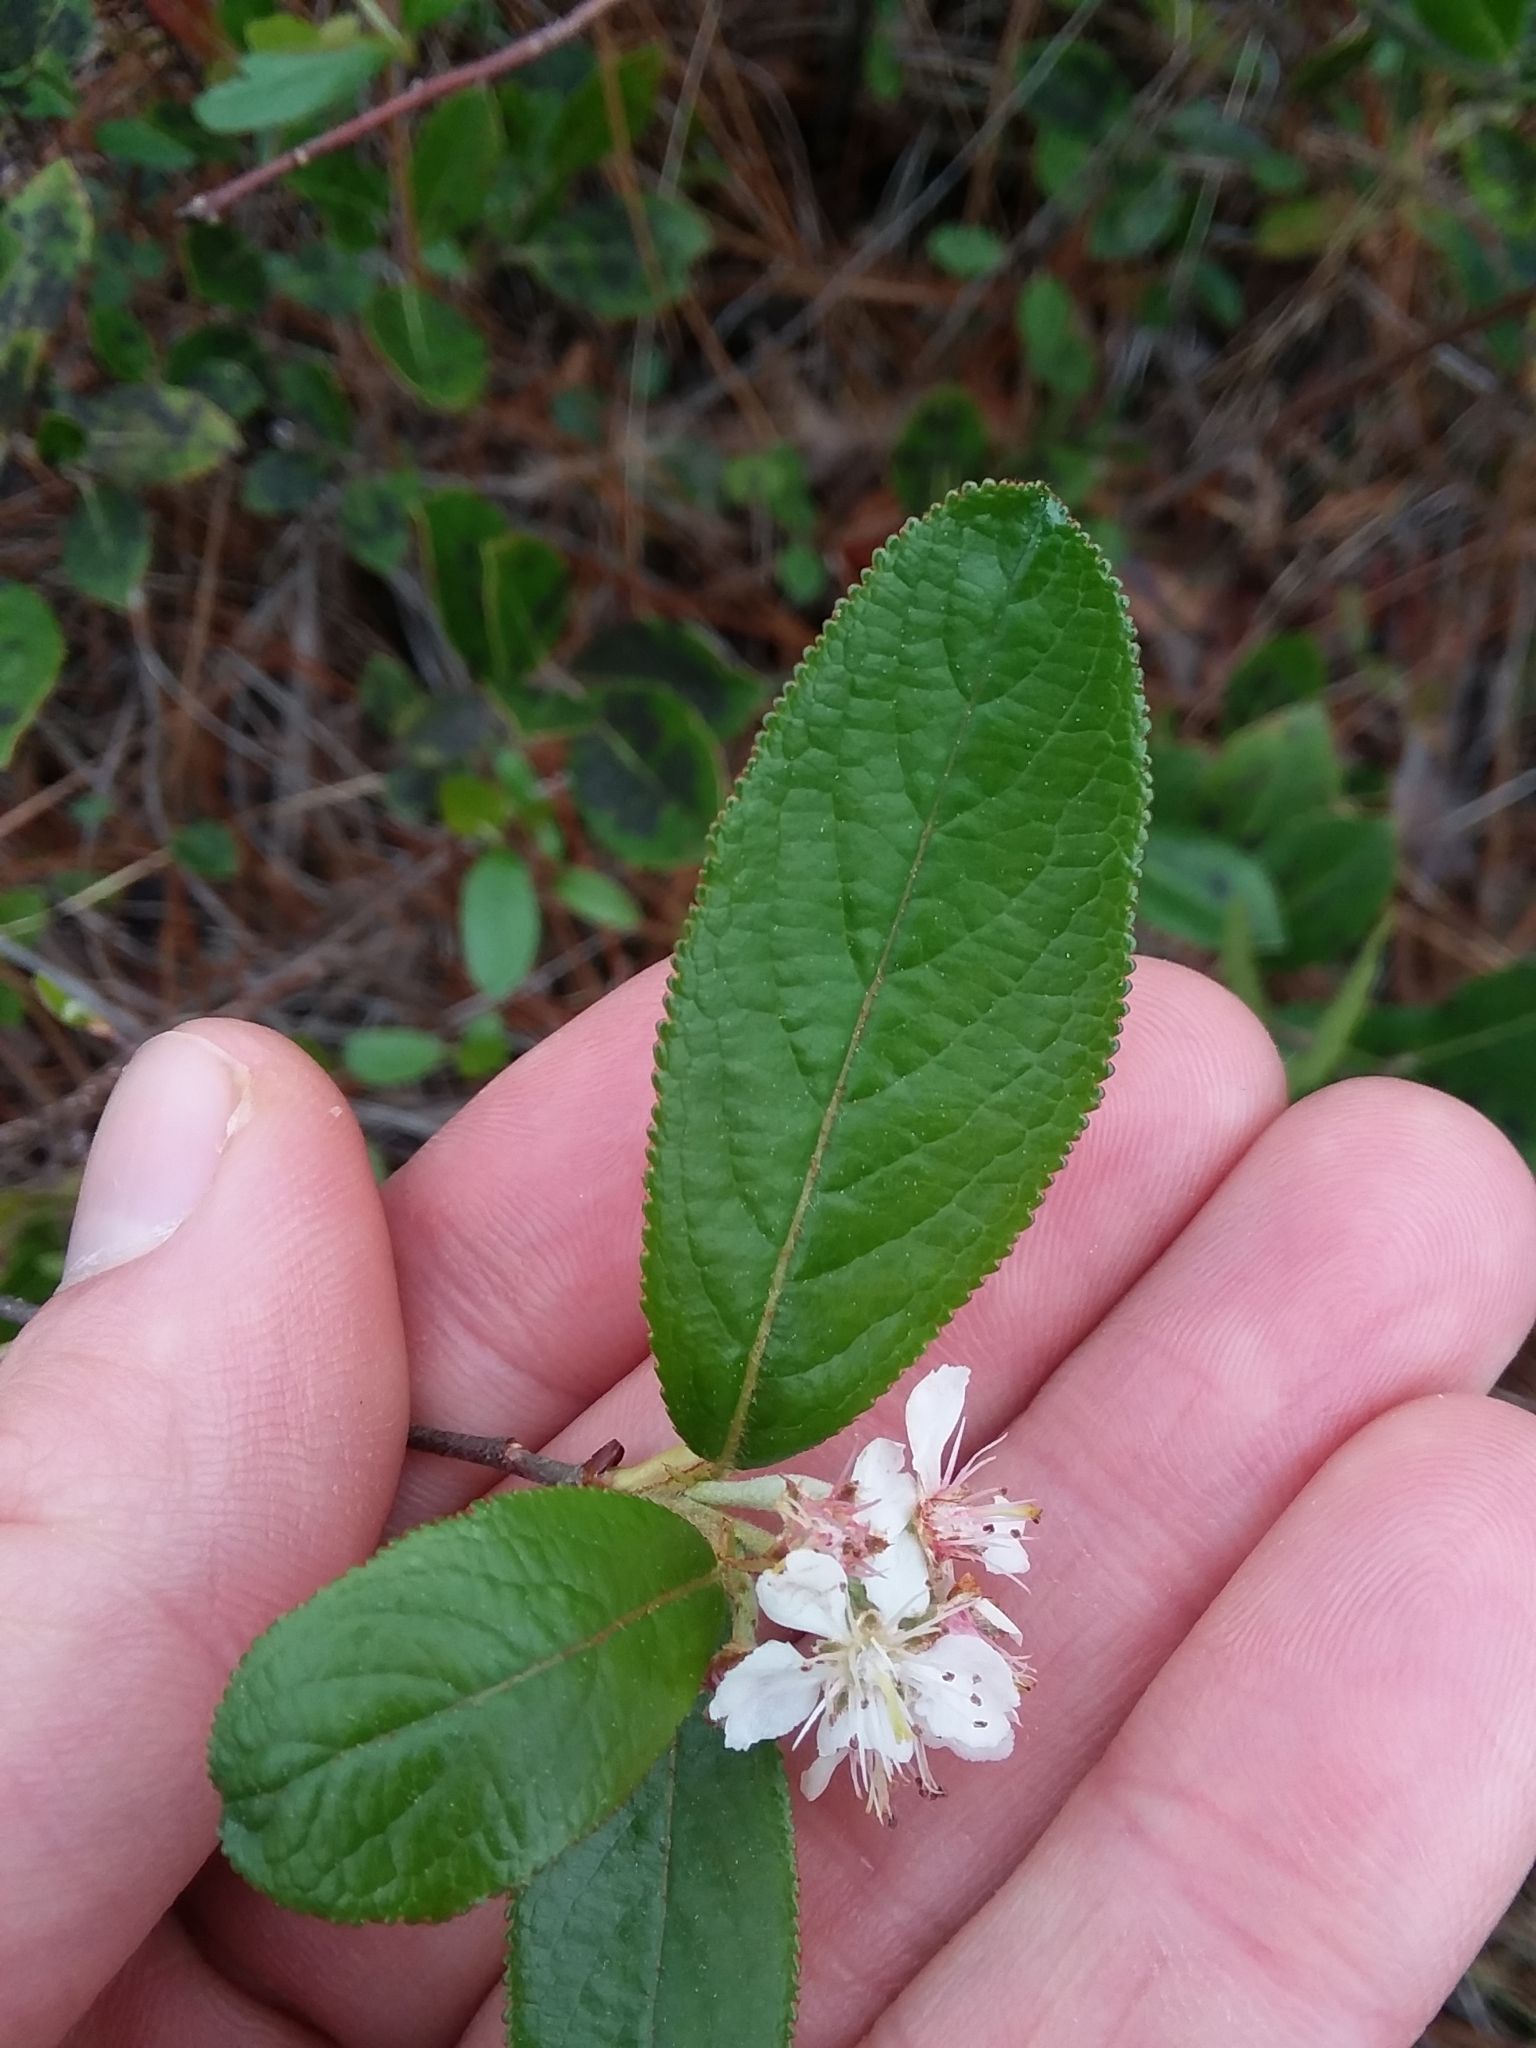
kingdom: Plantae
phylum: Tracheophyta
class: Magnoliopsida
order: Rosales
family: Rosaceae
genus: Aronia
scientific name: Aronia arbutifolia
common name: Red chokeberry
